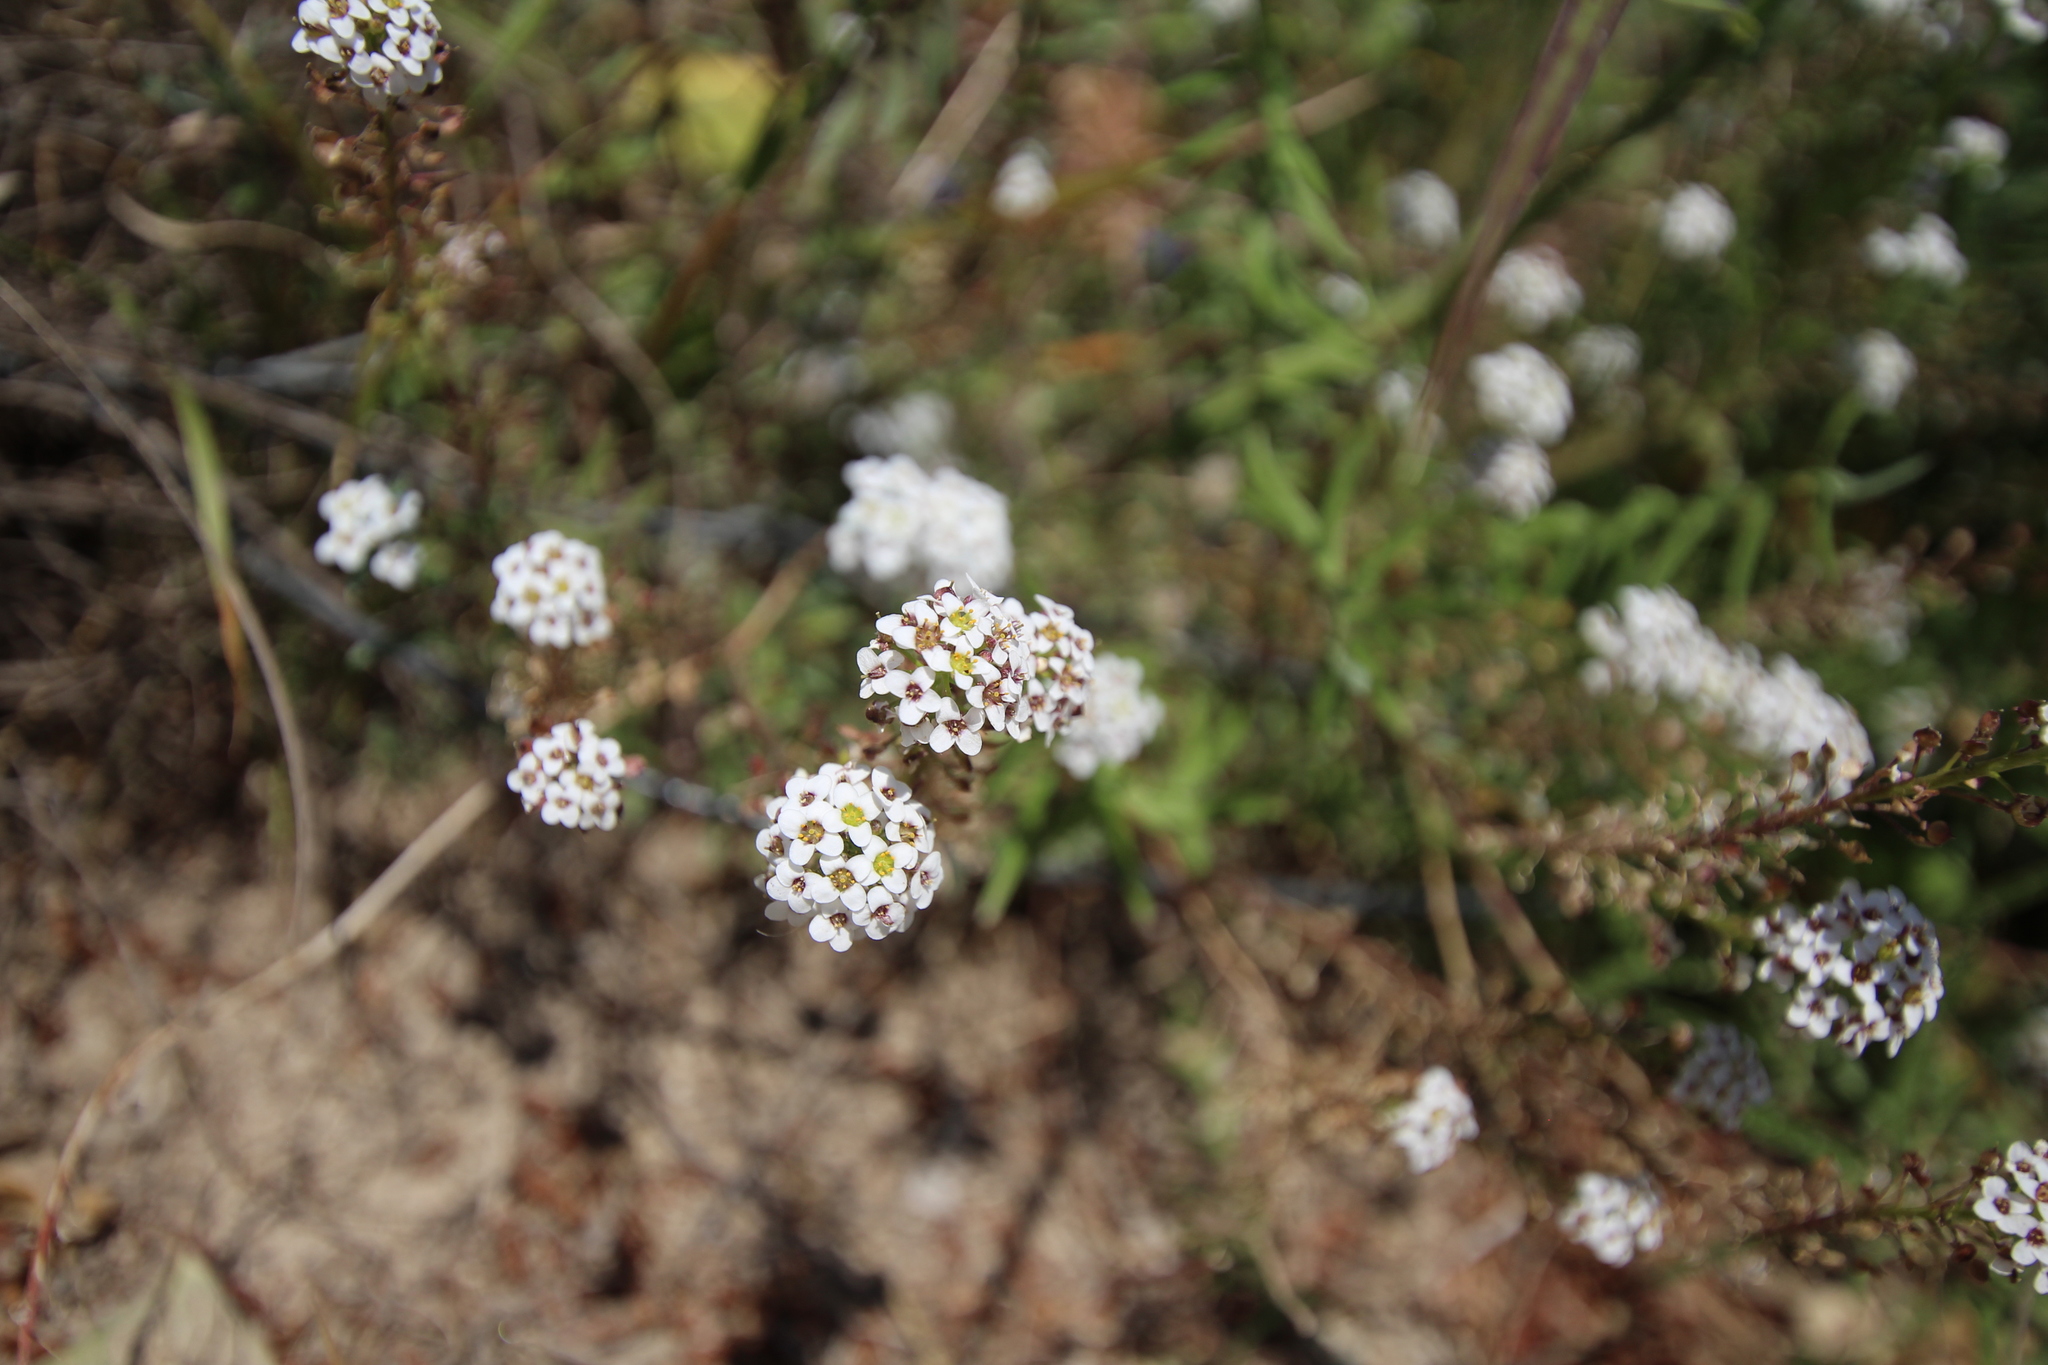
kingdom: Plantae
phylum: Tracheophyta
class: Magnoliopsida
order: Brassicales
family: Brassicaceae
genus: Lobularia
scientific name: Lobularia maritima
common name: Sweet alison
